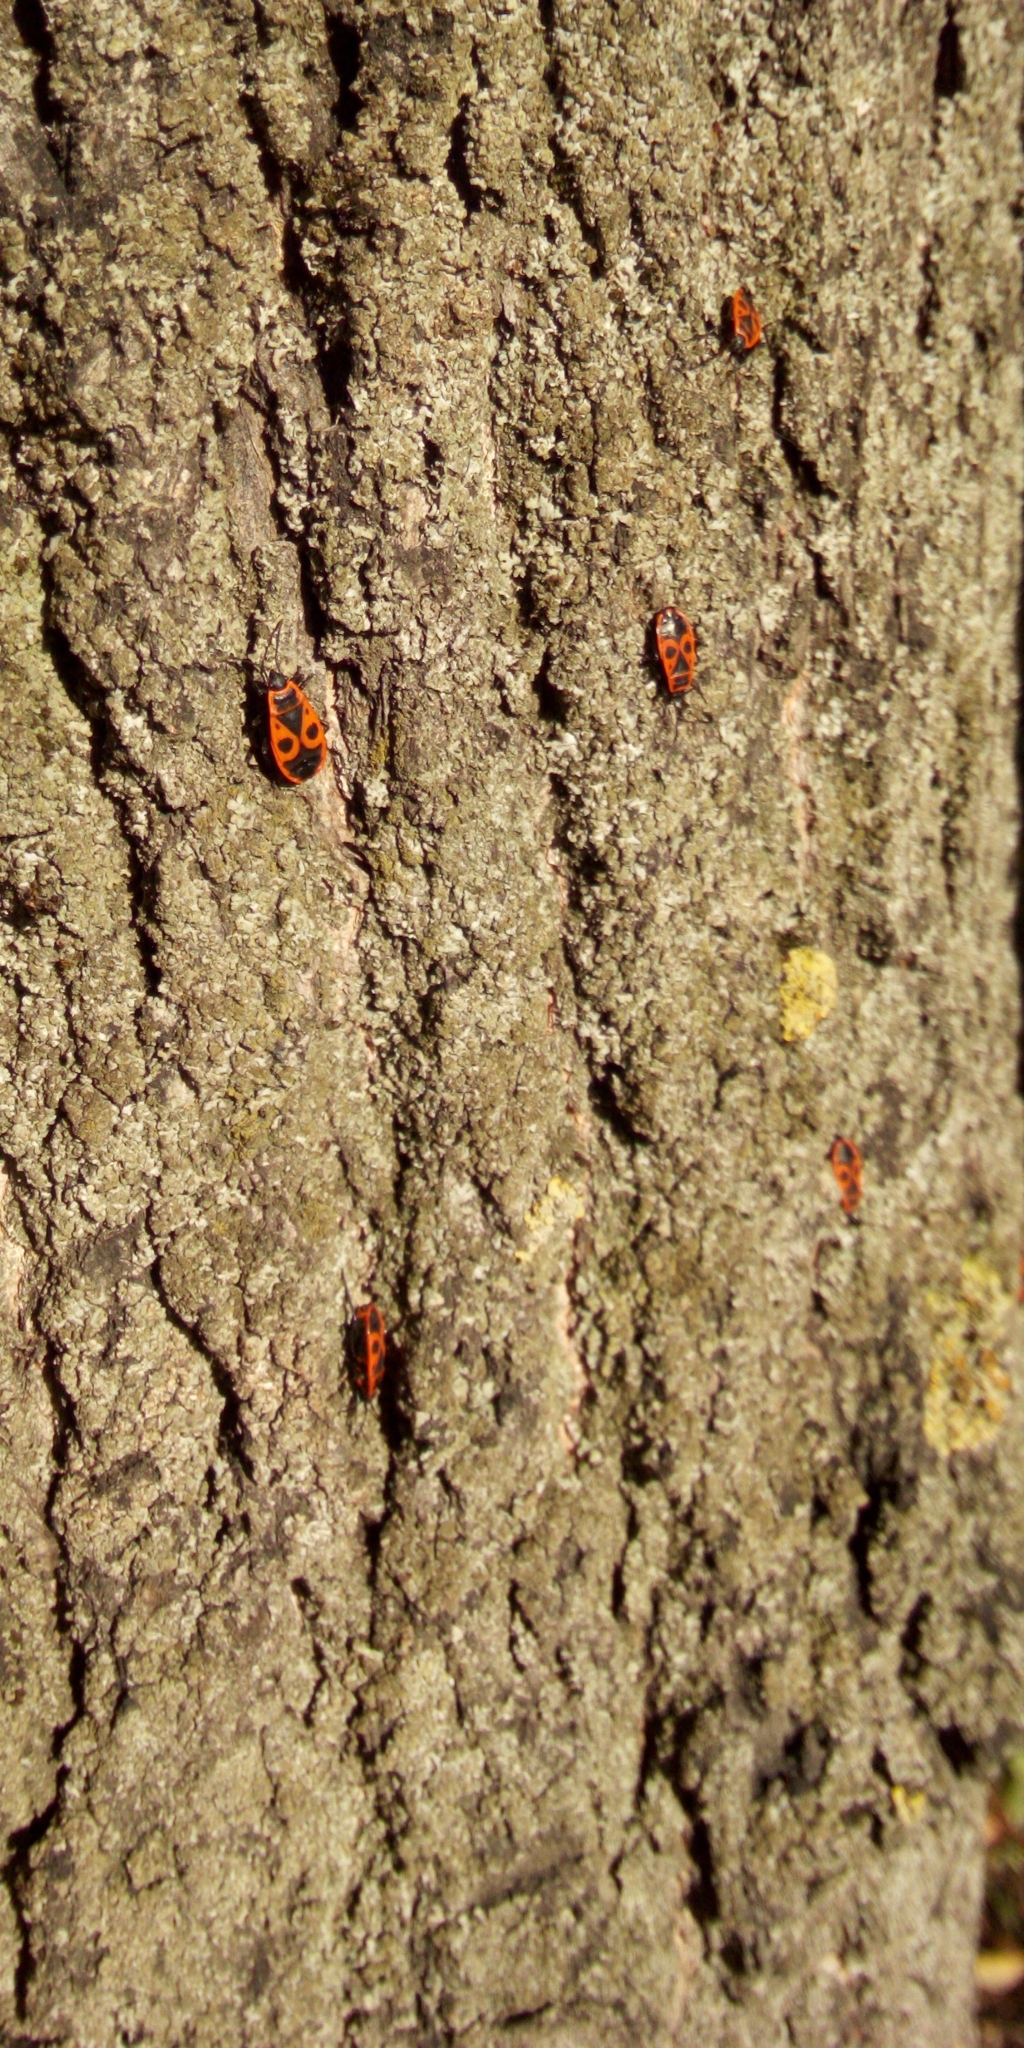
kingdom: Animalia
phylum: Arthropoda
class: Insecta
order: Hemiptera
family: Pyrrhocoridae
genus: Pyrrhocoris
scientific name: Pyrrhocoris apterus
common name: Firebug
